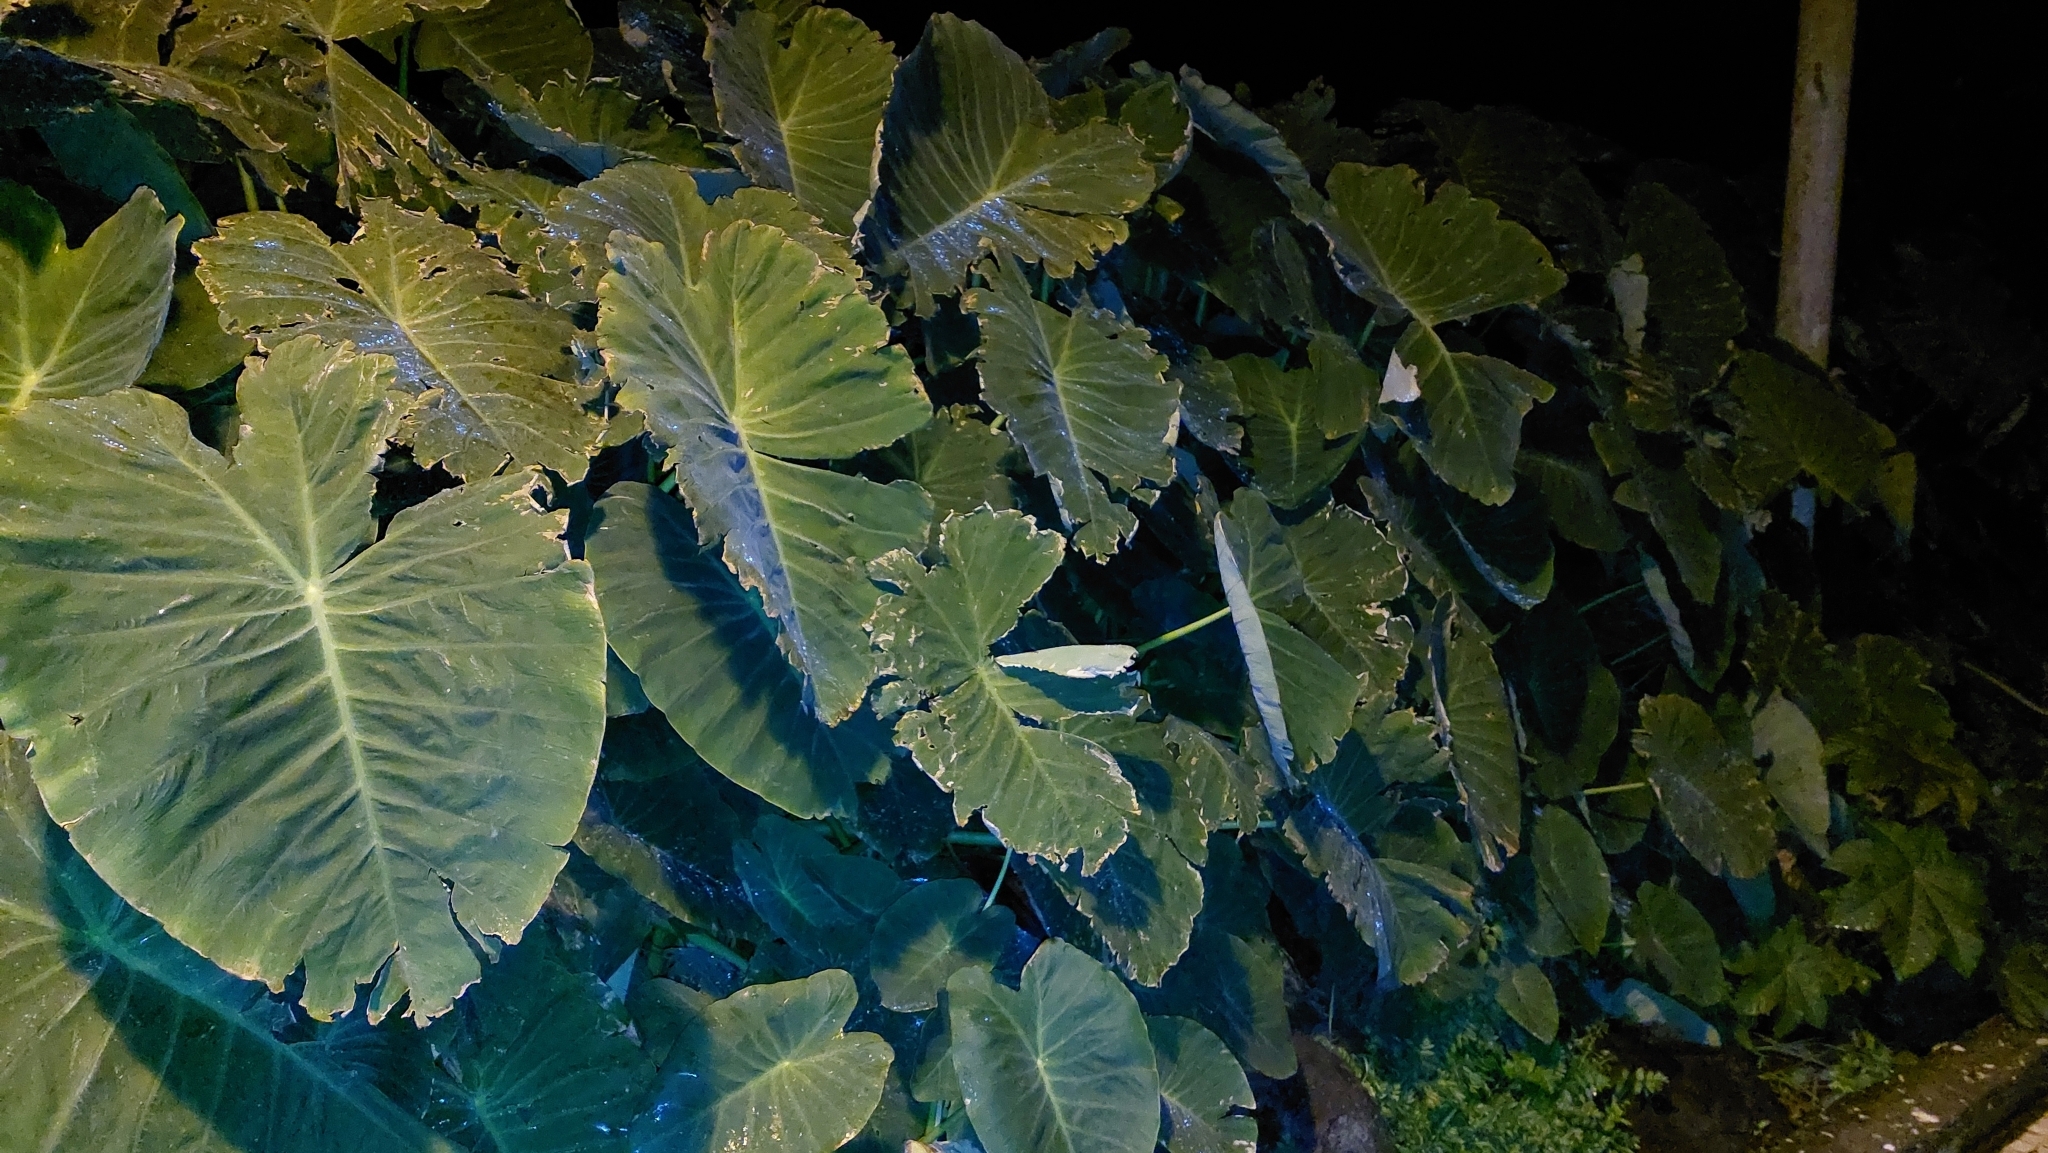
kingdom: Plantae
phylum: Tracheophyta
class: Liliopsida
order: Alismatales
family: Araceae
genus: Colocasia
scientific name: Colocasia esculenta
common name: Taro
